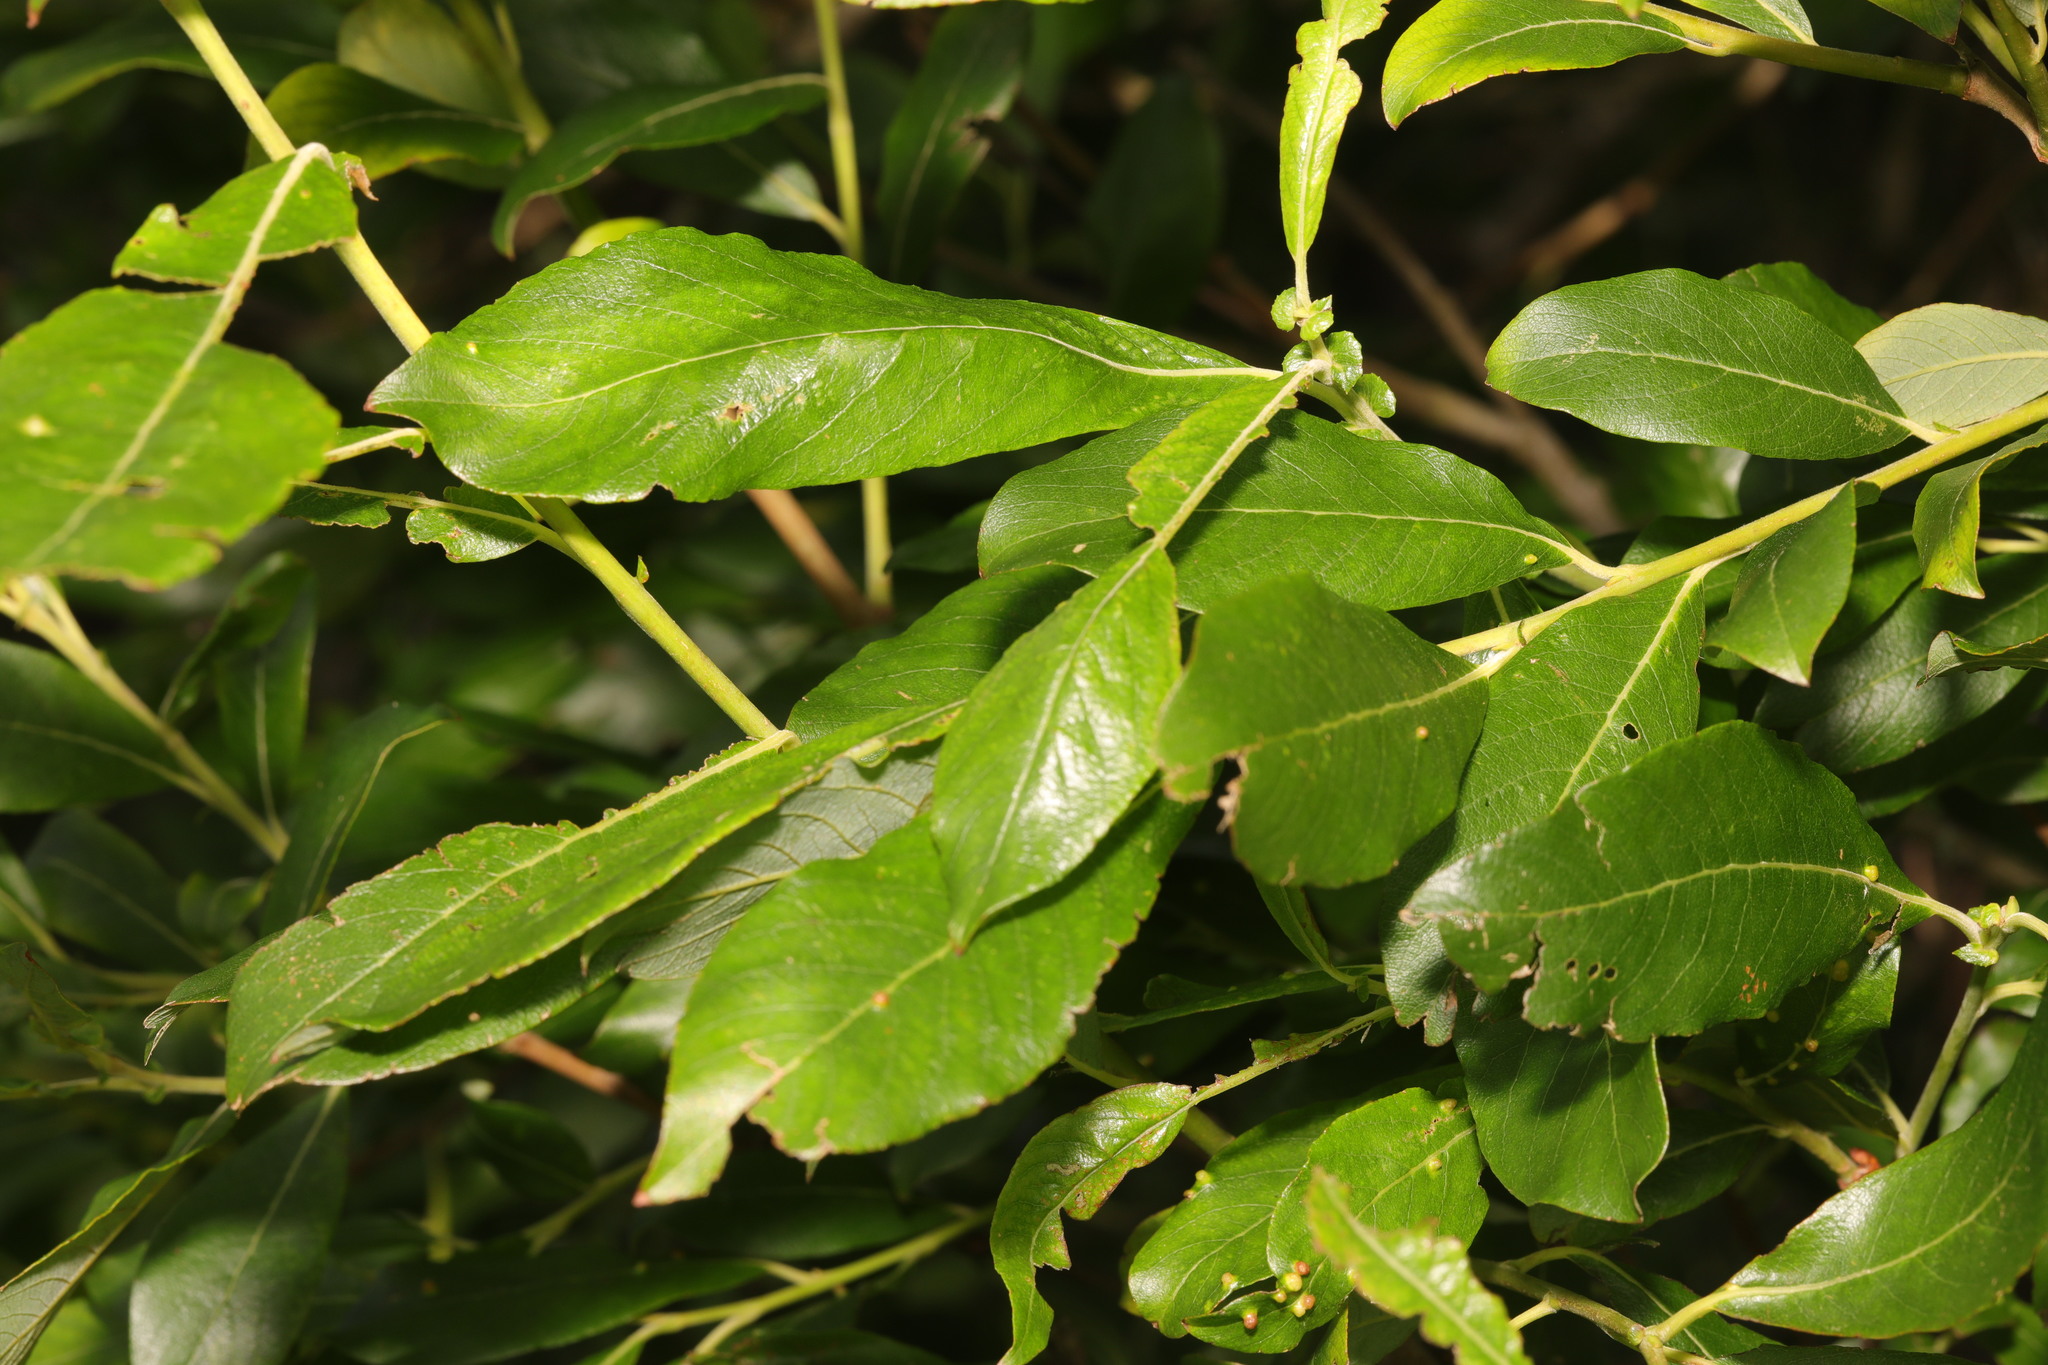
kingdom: Plantae
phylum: Tracheophyta
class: Magnoliopsida
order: Malpighiales
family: Salicaceae
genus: Salix
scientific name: Salix atrocinerea
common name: Rusty willow
